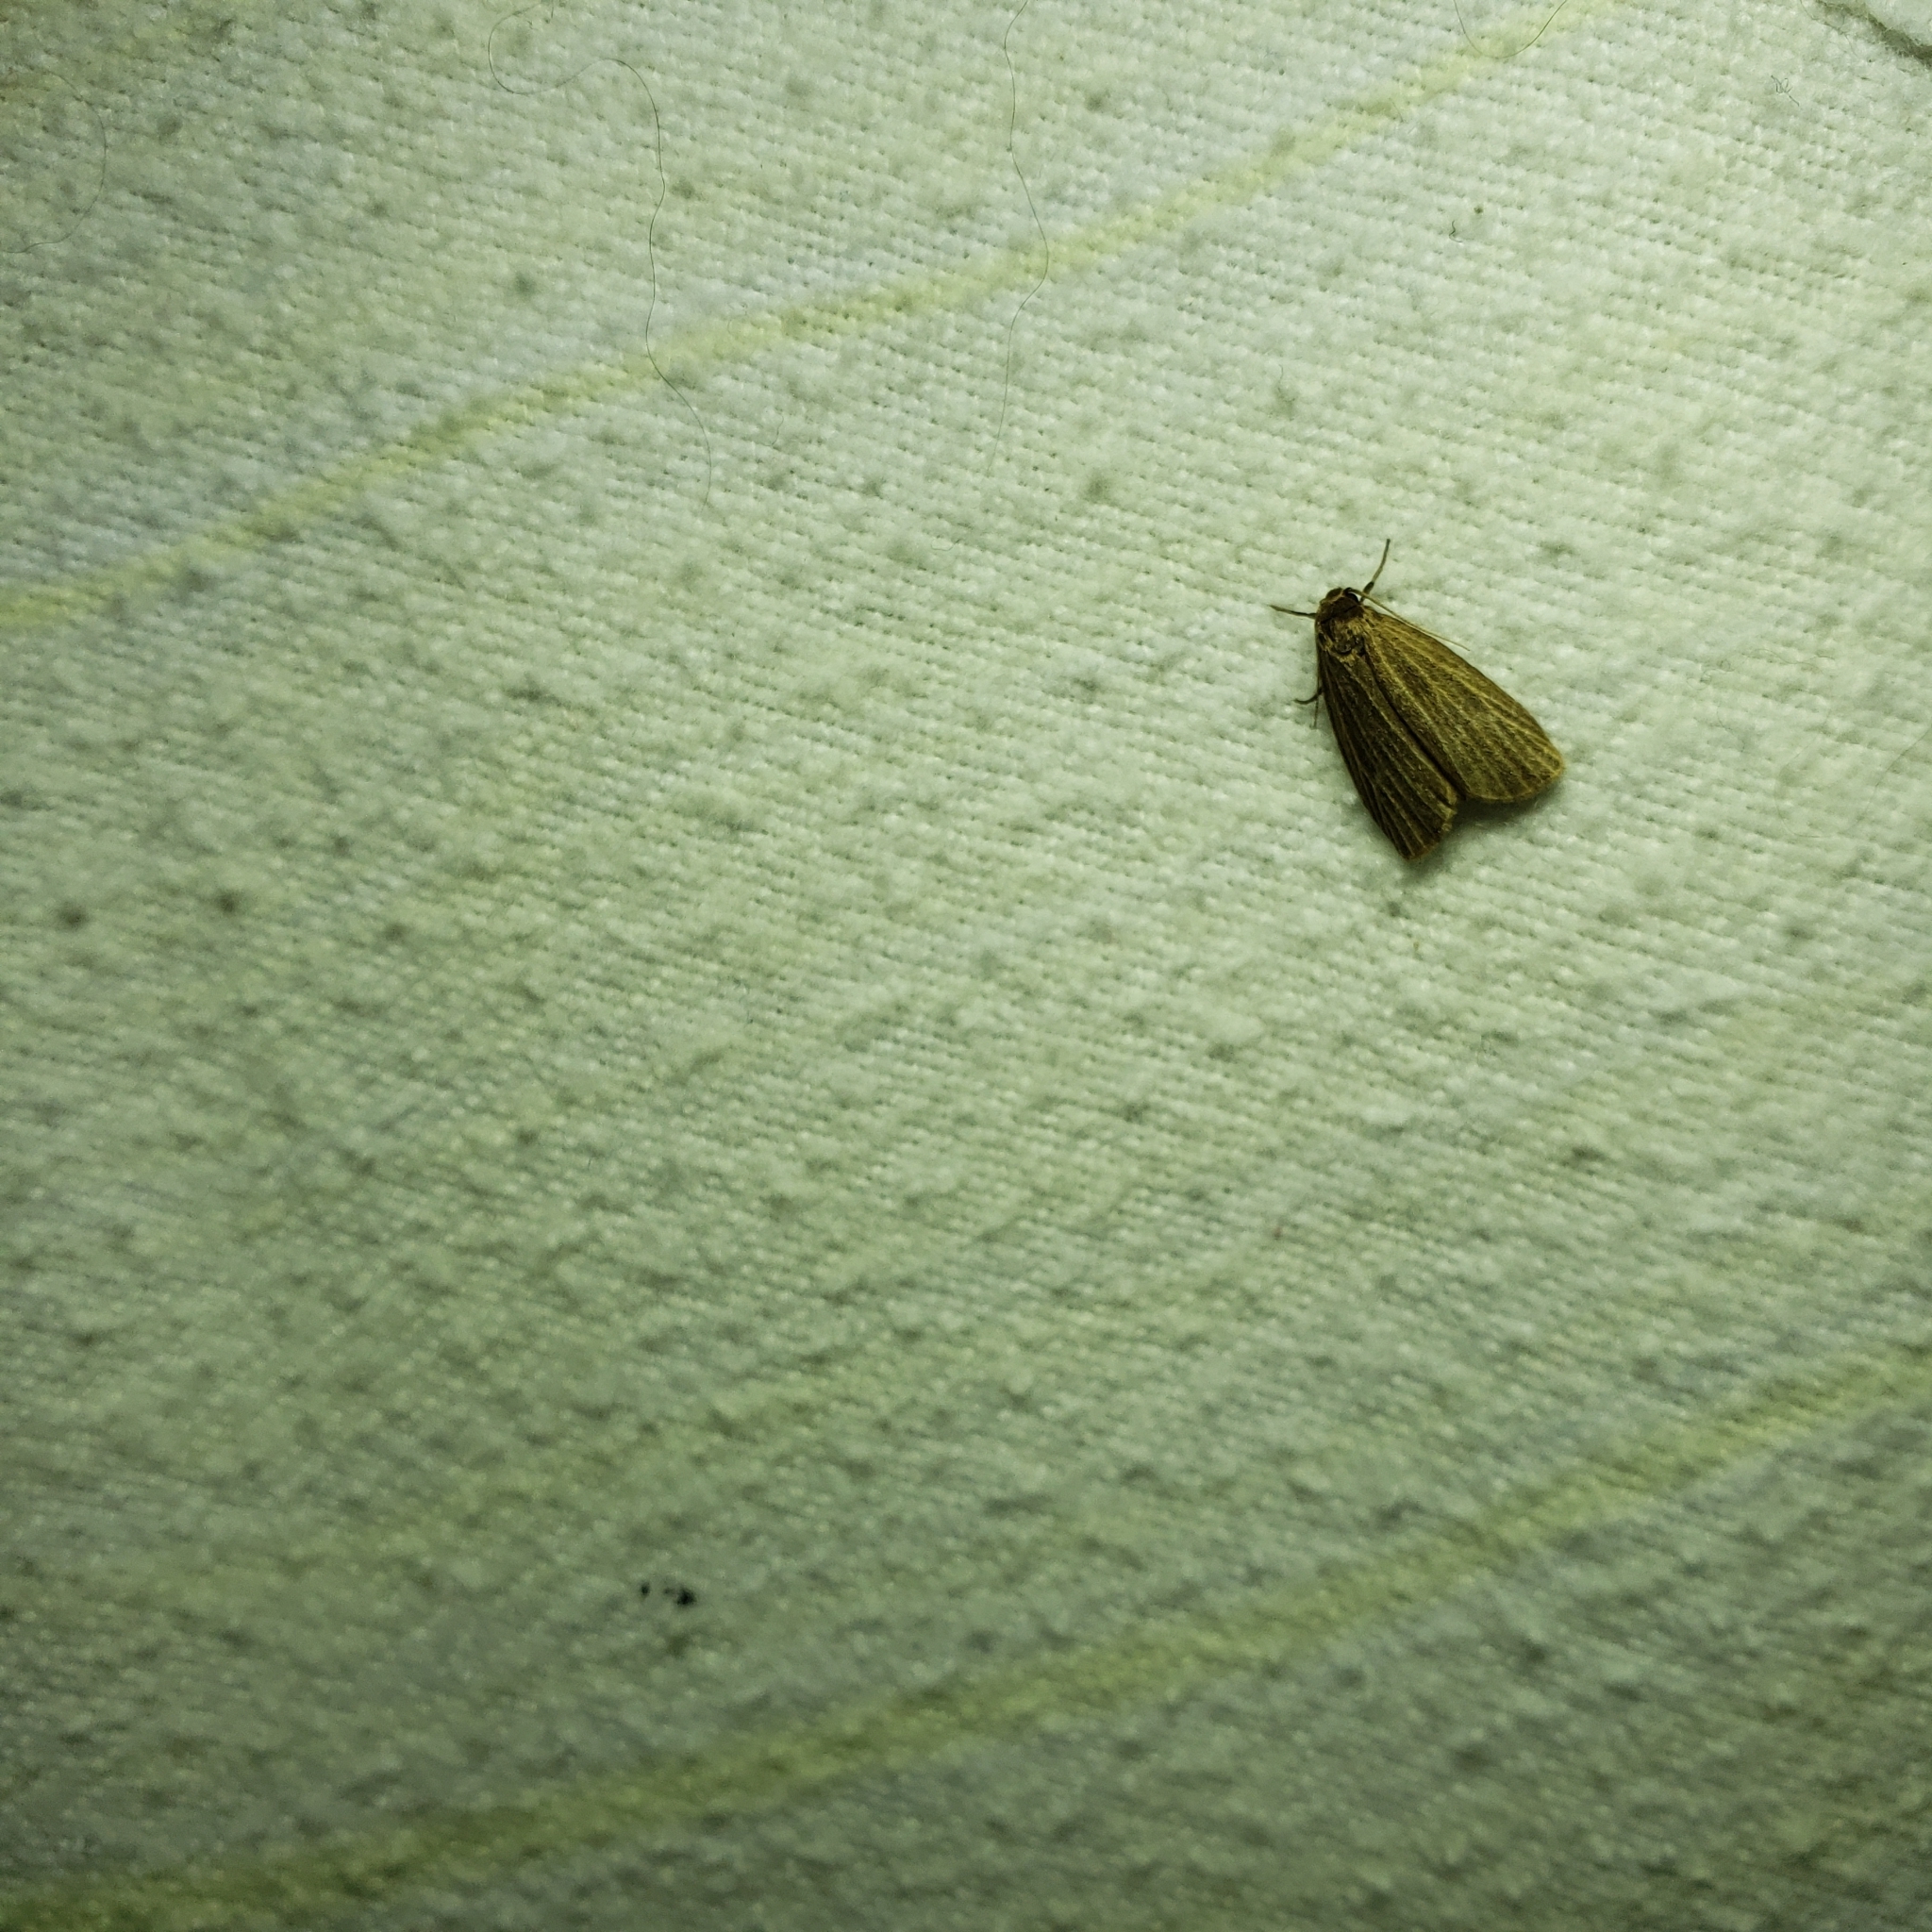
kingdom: Animalia
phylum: Arthropoda
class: Insecta
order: Lepidoptera
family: Erebidae
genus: Crambidia
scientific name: Crambidia pallida
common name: Pale lichen moth
